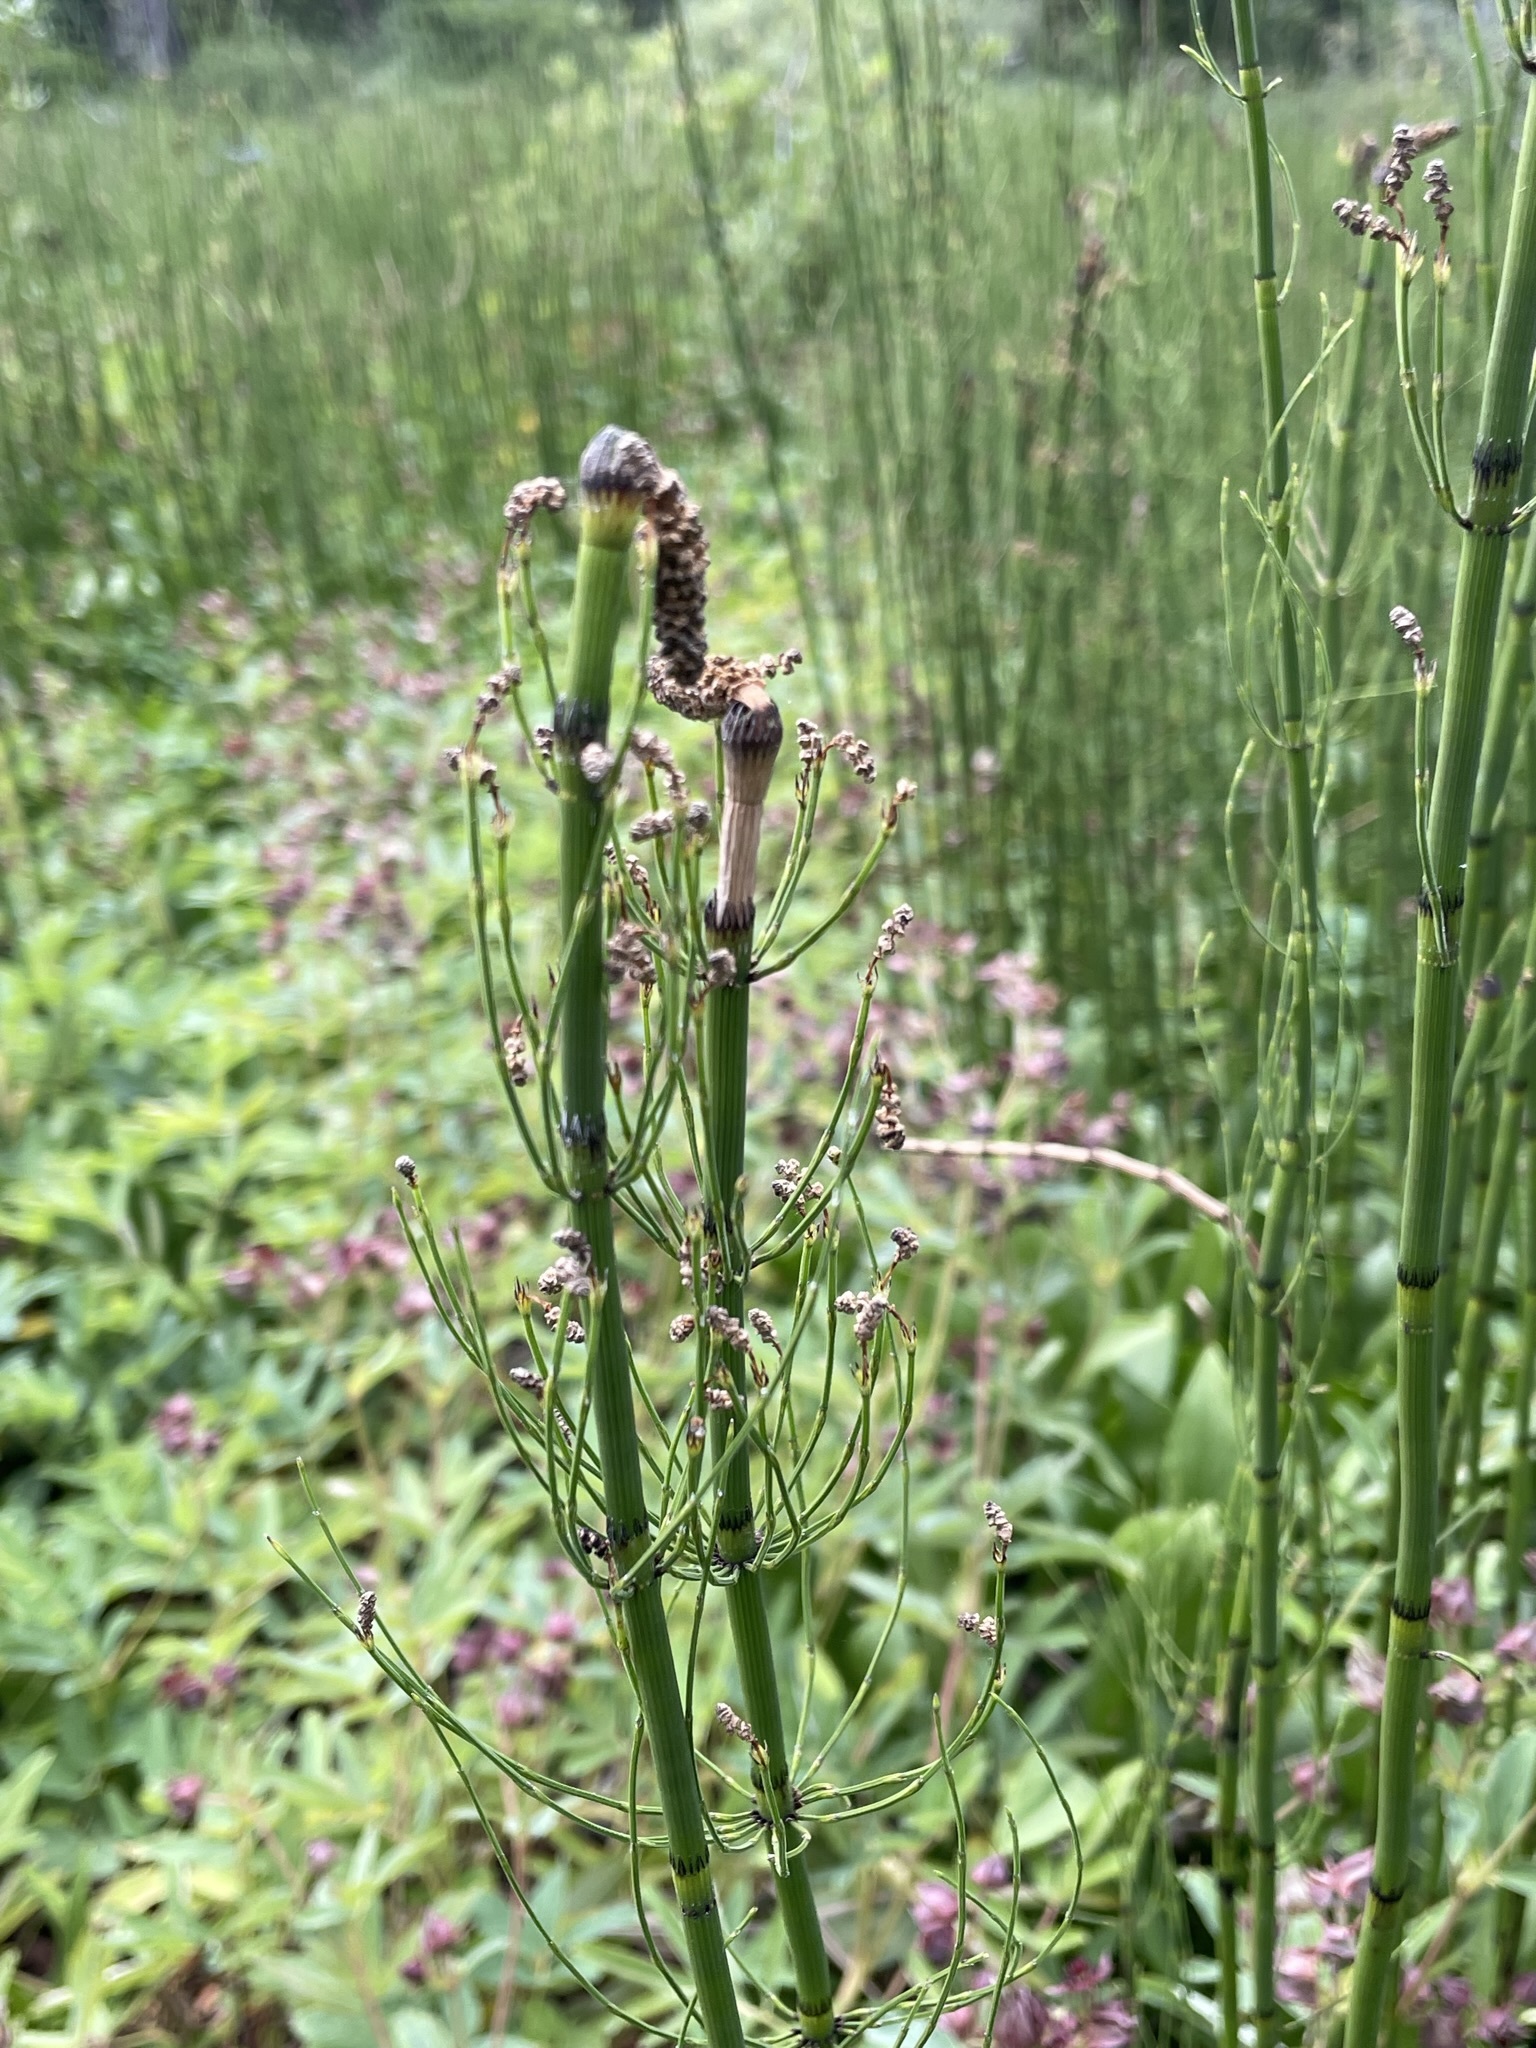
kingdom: Plantae
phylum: Tracheophyta
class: Polypodiopsida
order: Equisetales
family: Equisetaceae
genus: Equisetum
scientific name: Equisetum fluviatile
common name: Water horsetail
